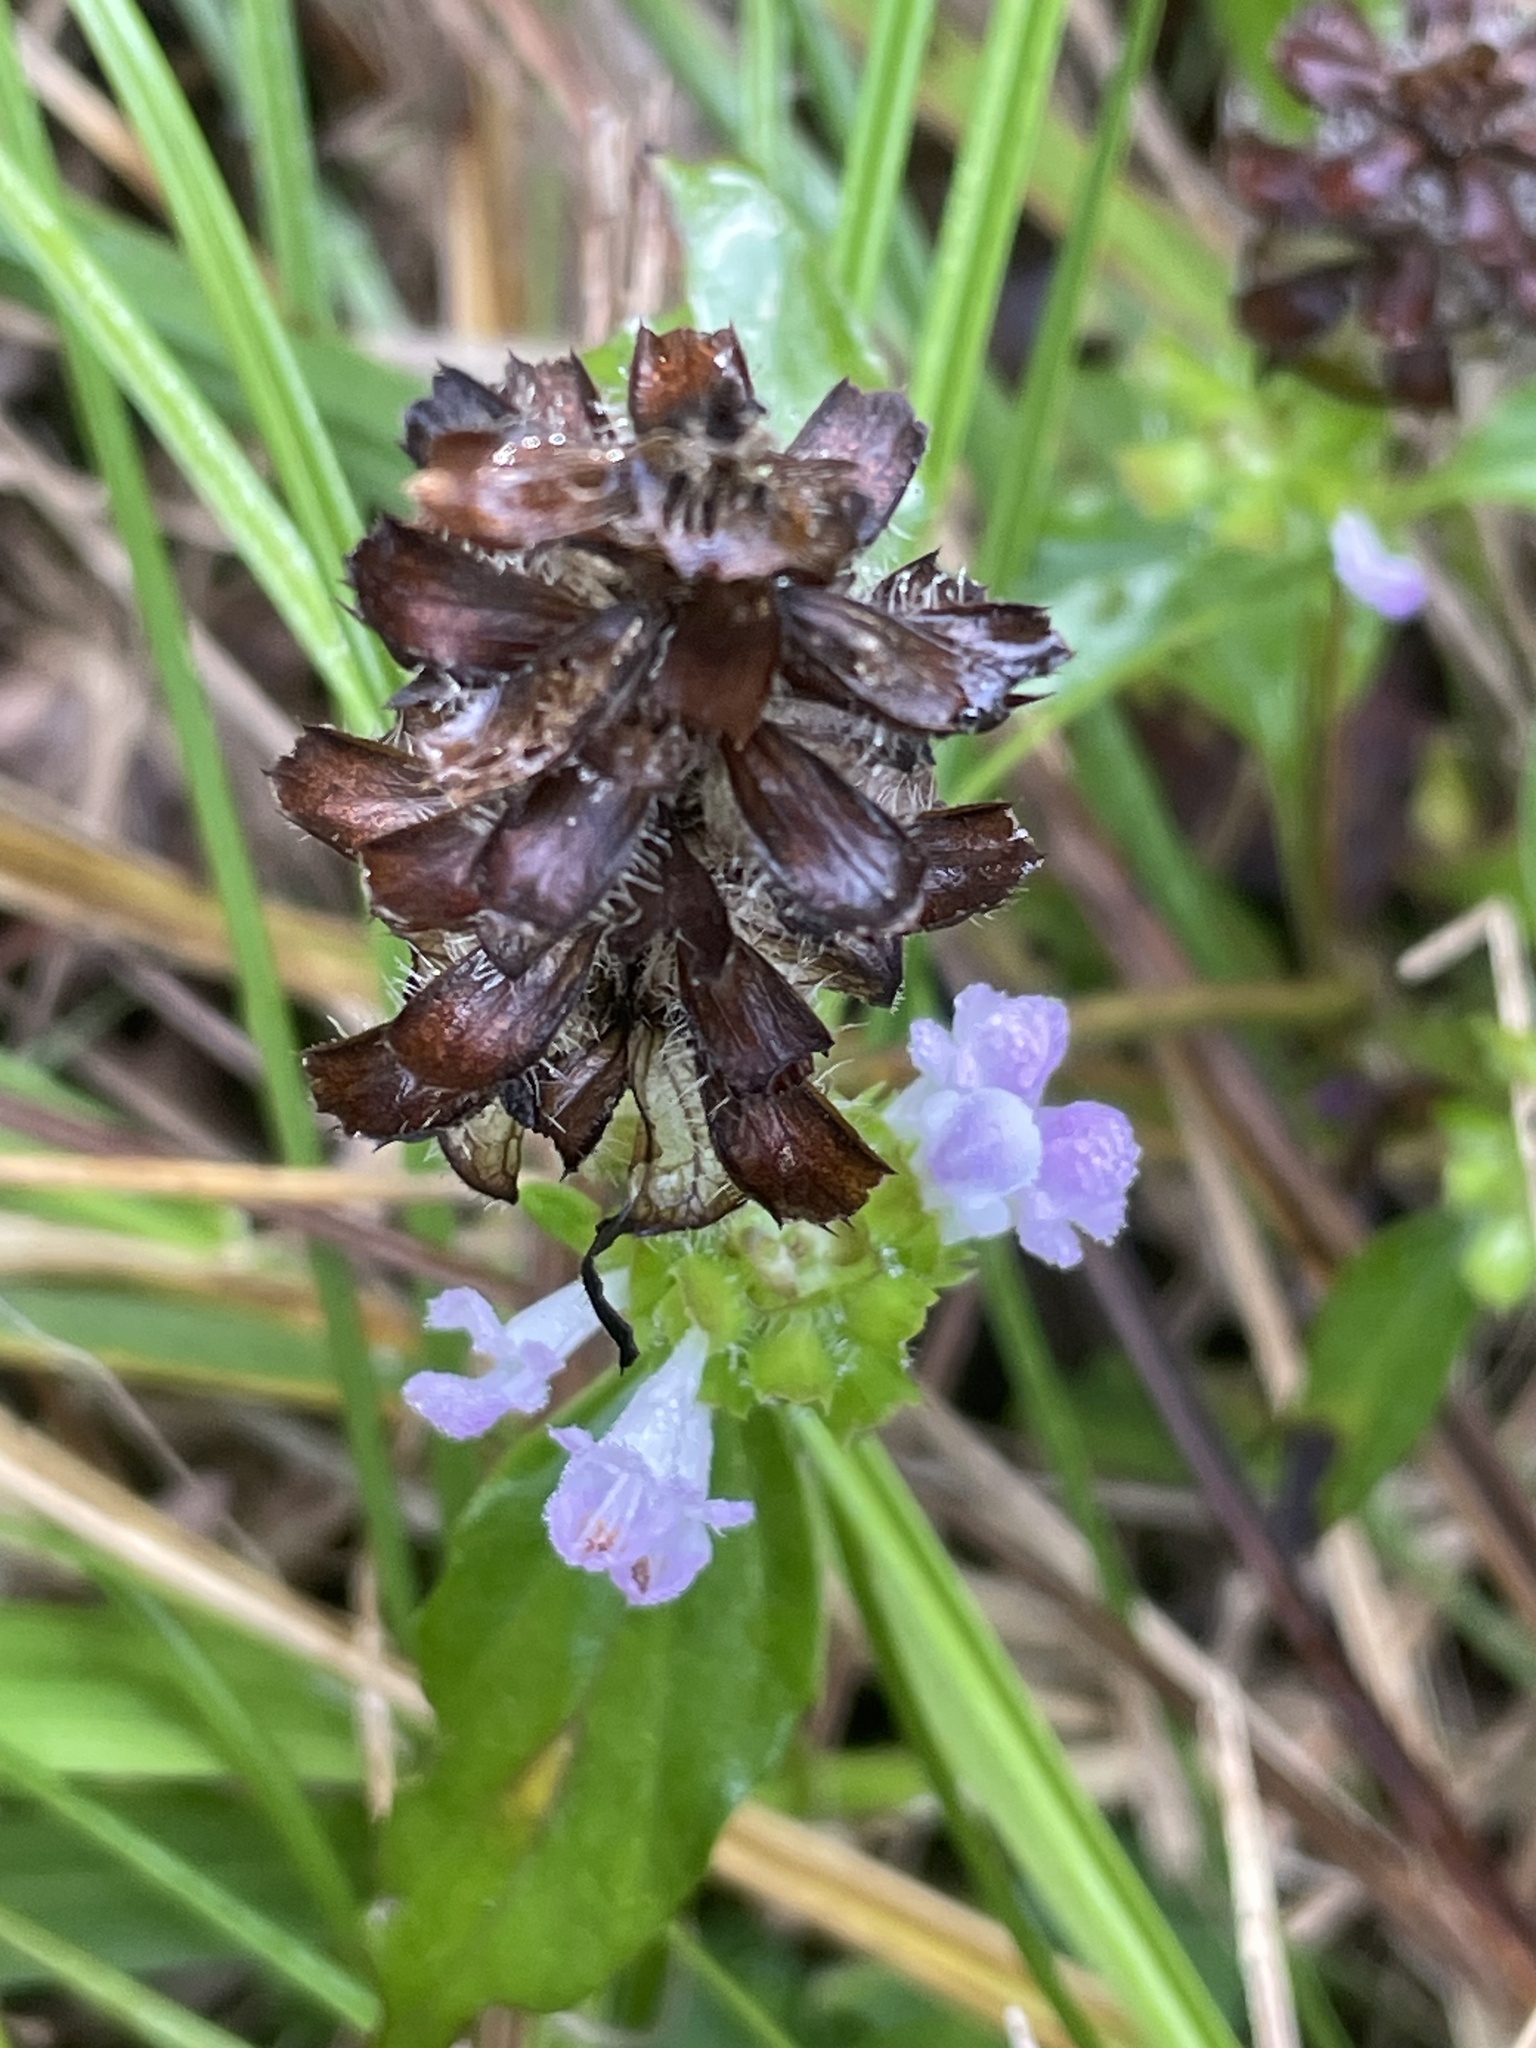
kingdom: Plantae
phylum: Tracheophyta
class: Magnoliopsida
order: Lamiales
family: Lamiaceae
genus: Prunella
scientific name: Prunella vulgaris
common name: Heal-all
